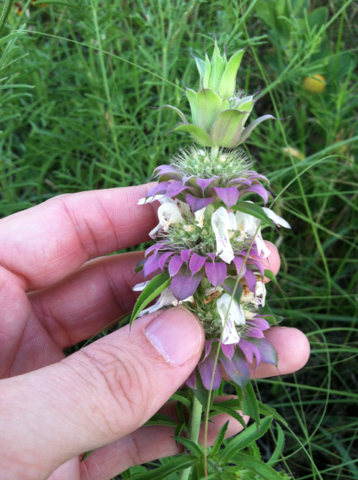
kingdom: Plantae
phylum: Tracheophyta
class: Magnoliopsida
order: Lamiales
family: Lamiaceae
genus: Monarda
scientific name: Monarda citriodora
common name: Lemon beebalm
